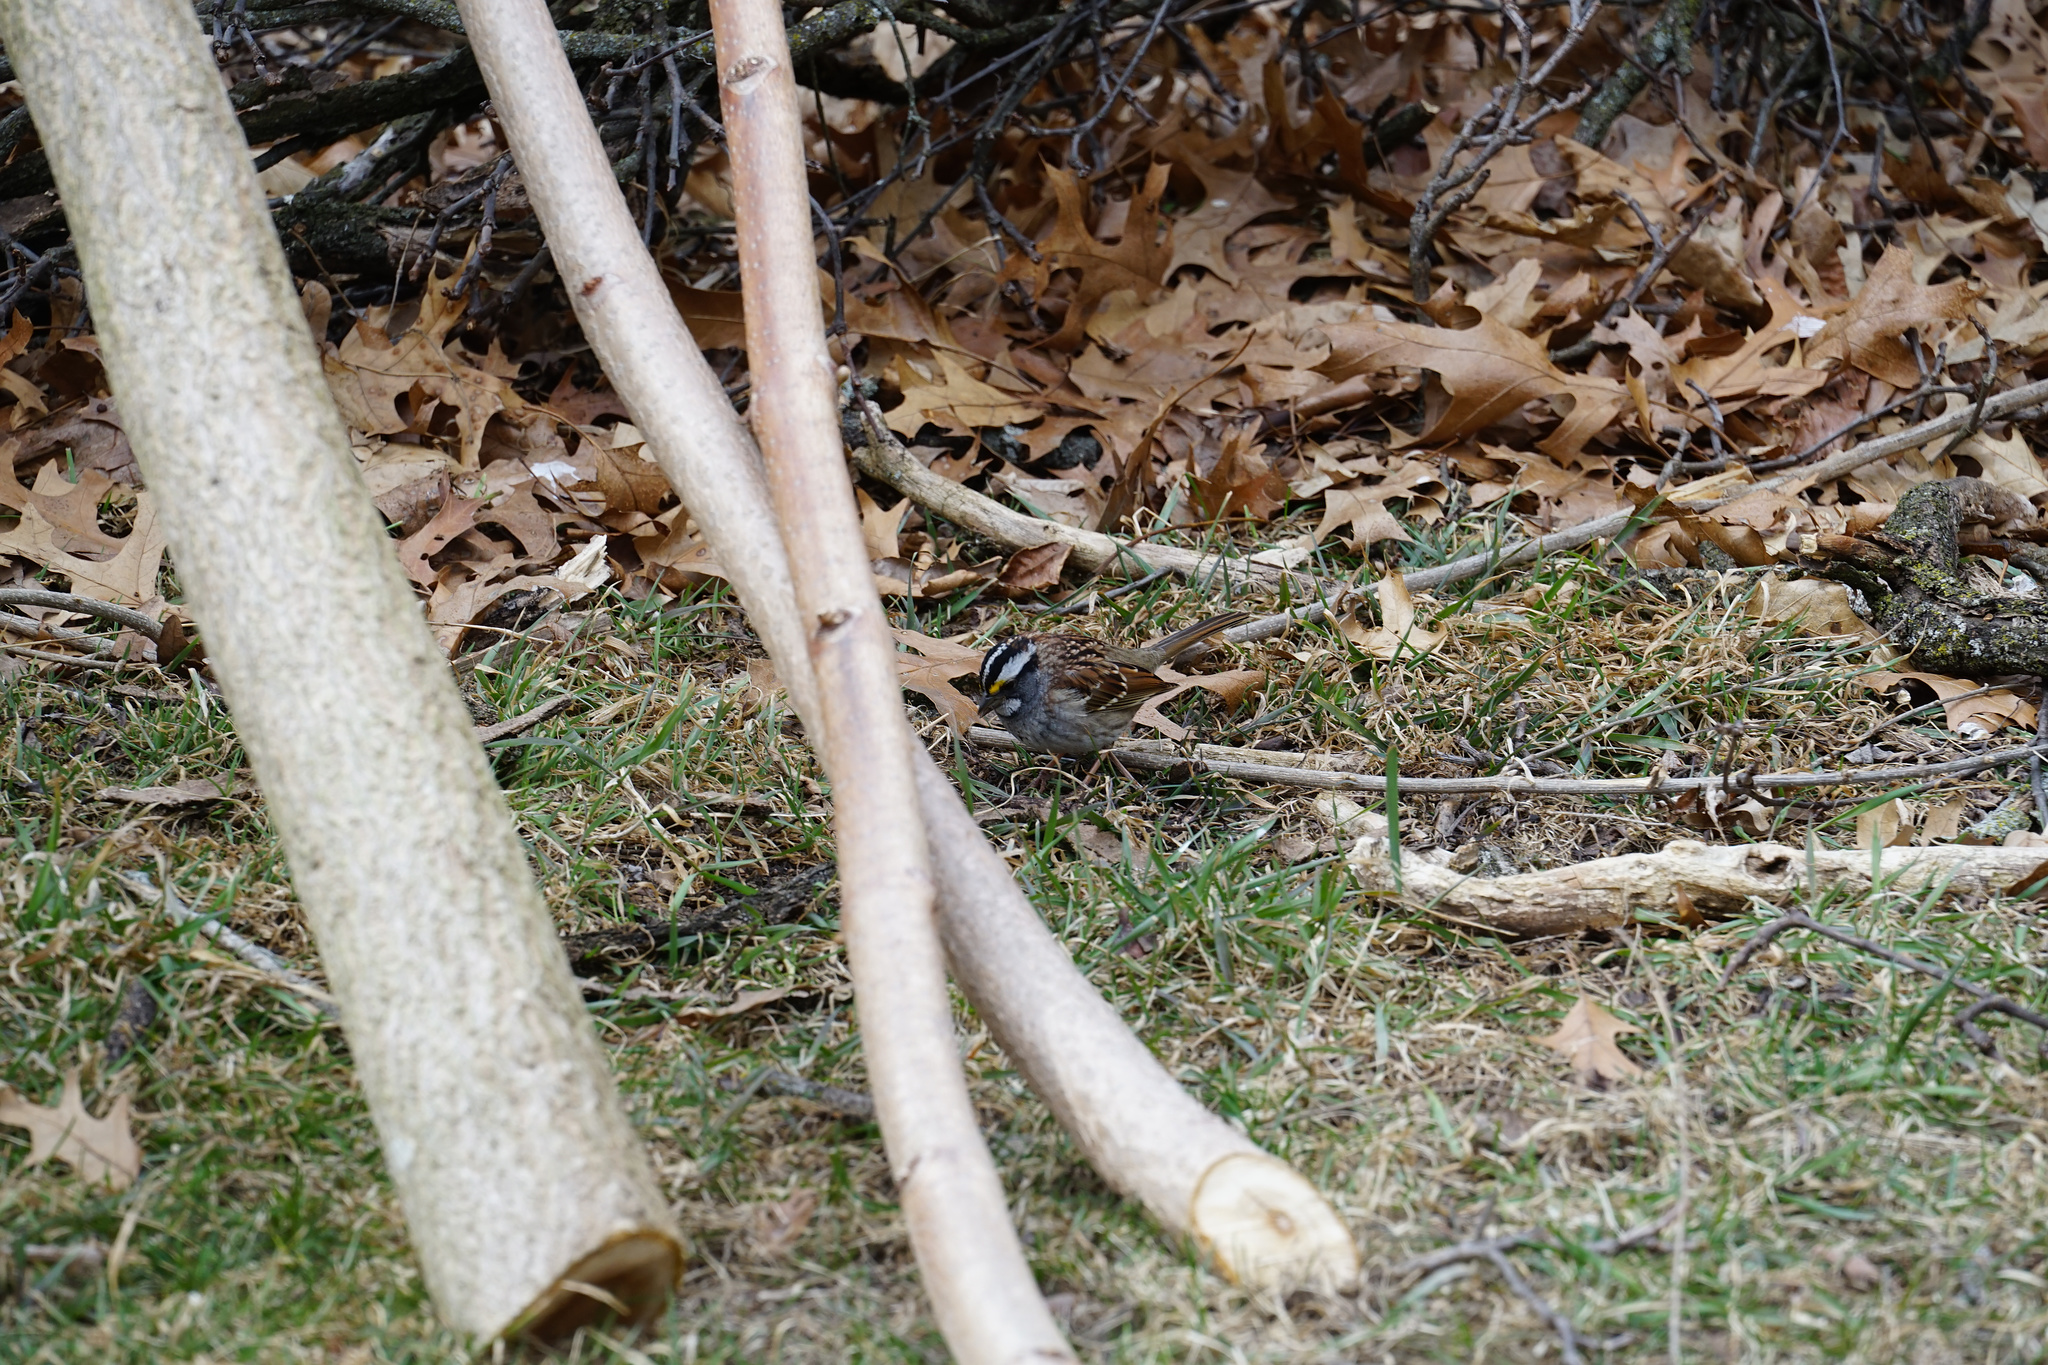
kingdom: Animalia
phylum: Chordata
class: Aves
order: Passeriformes
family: Passerellidae
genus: Zonotrichia
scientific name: Zonotrichia albicollis
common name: White-throated sparrow
